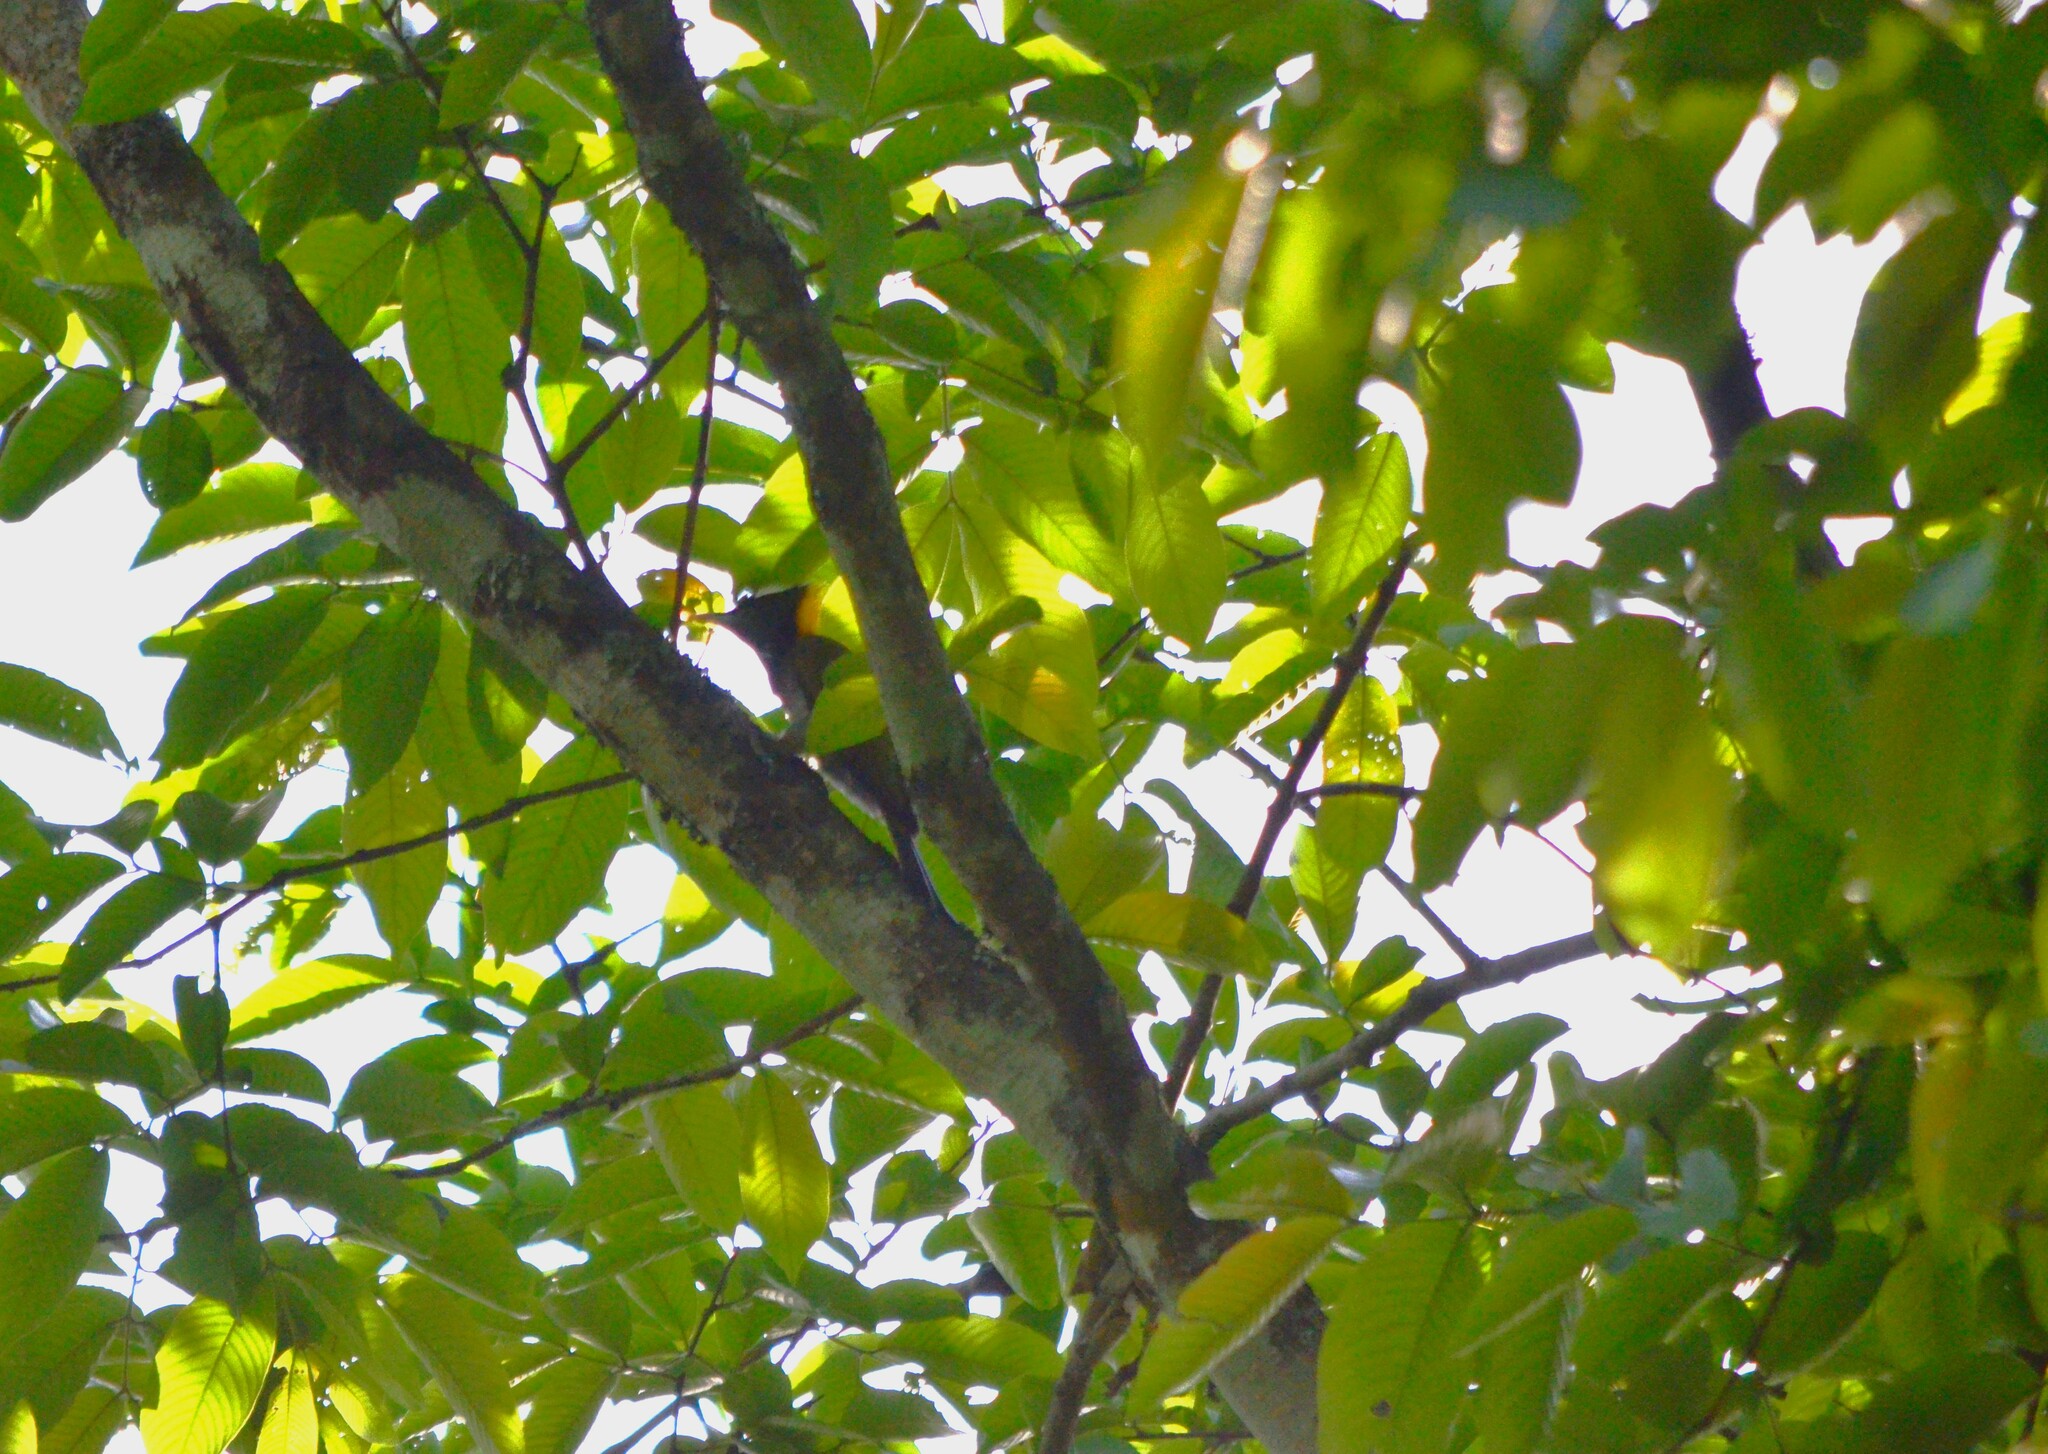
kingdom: Animalia
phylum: Chordata
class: Aves
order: Piciformes
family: Picidae
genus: Chrysophlegma
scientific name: Chrysophlegma flavinucha
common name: Greater yellownape
